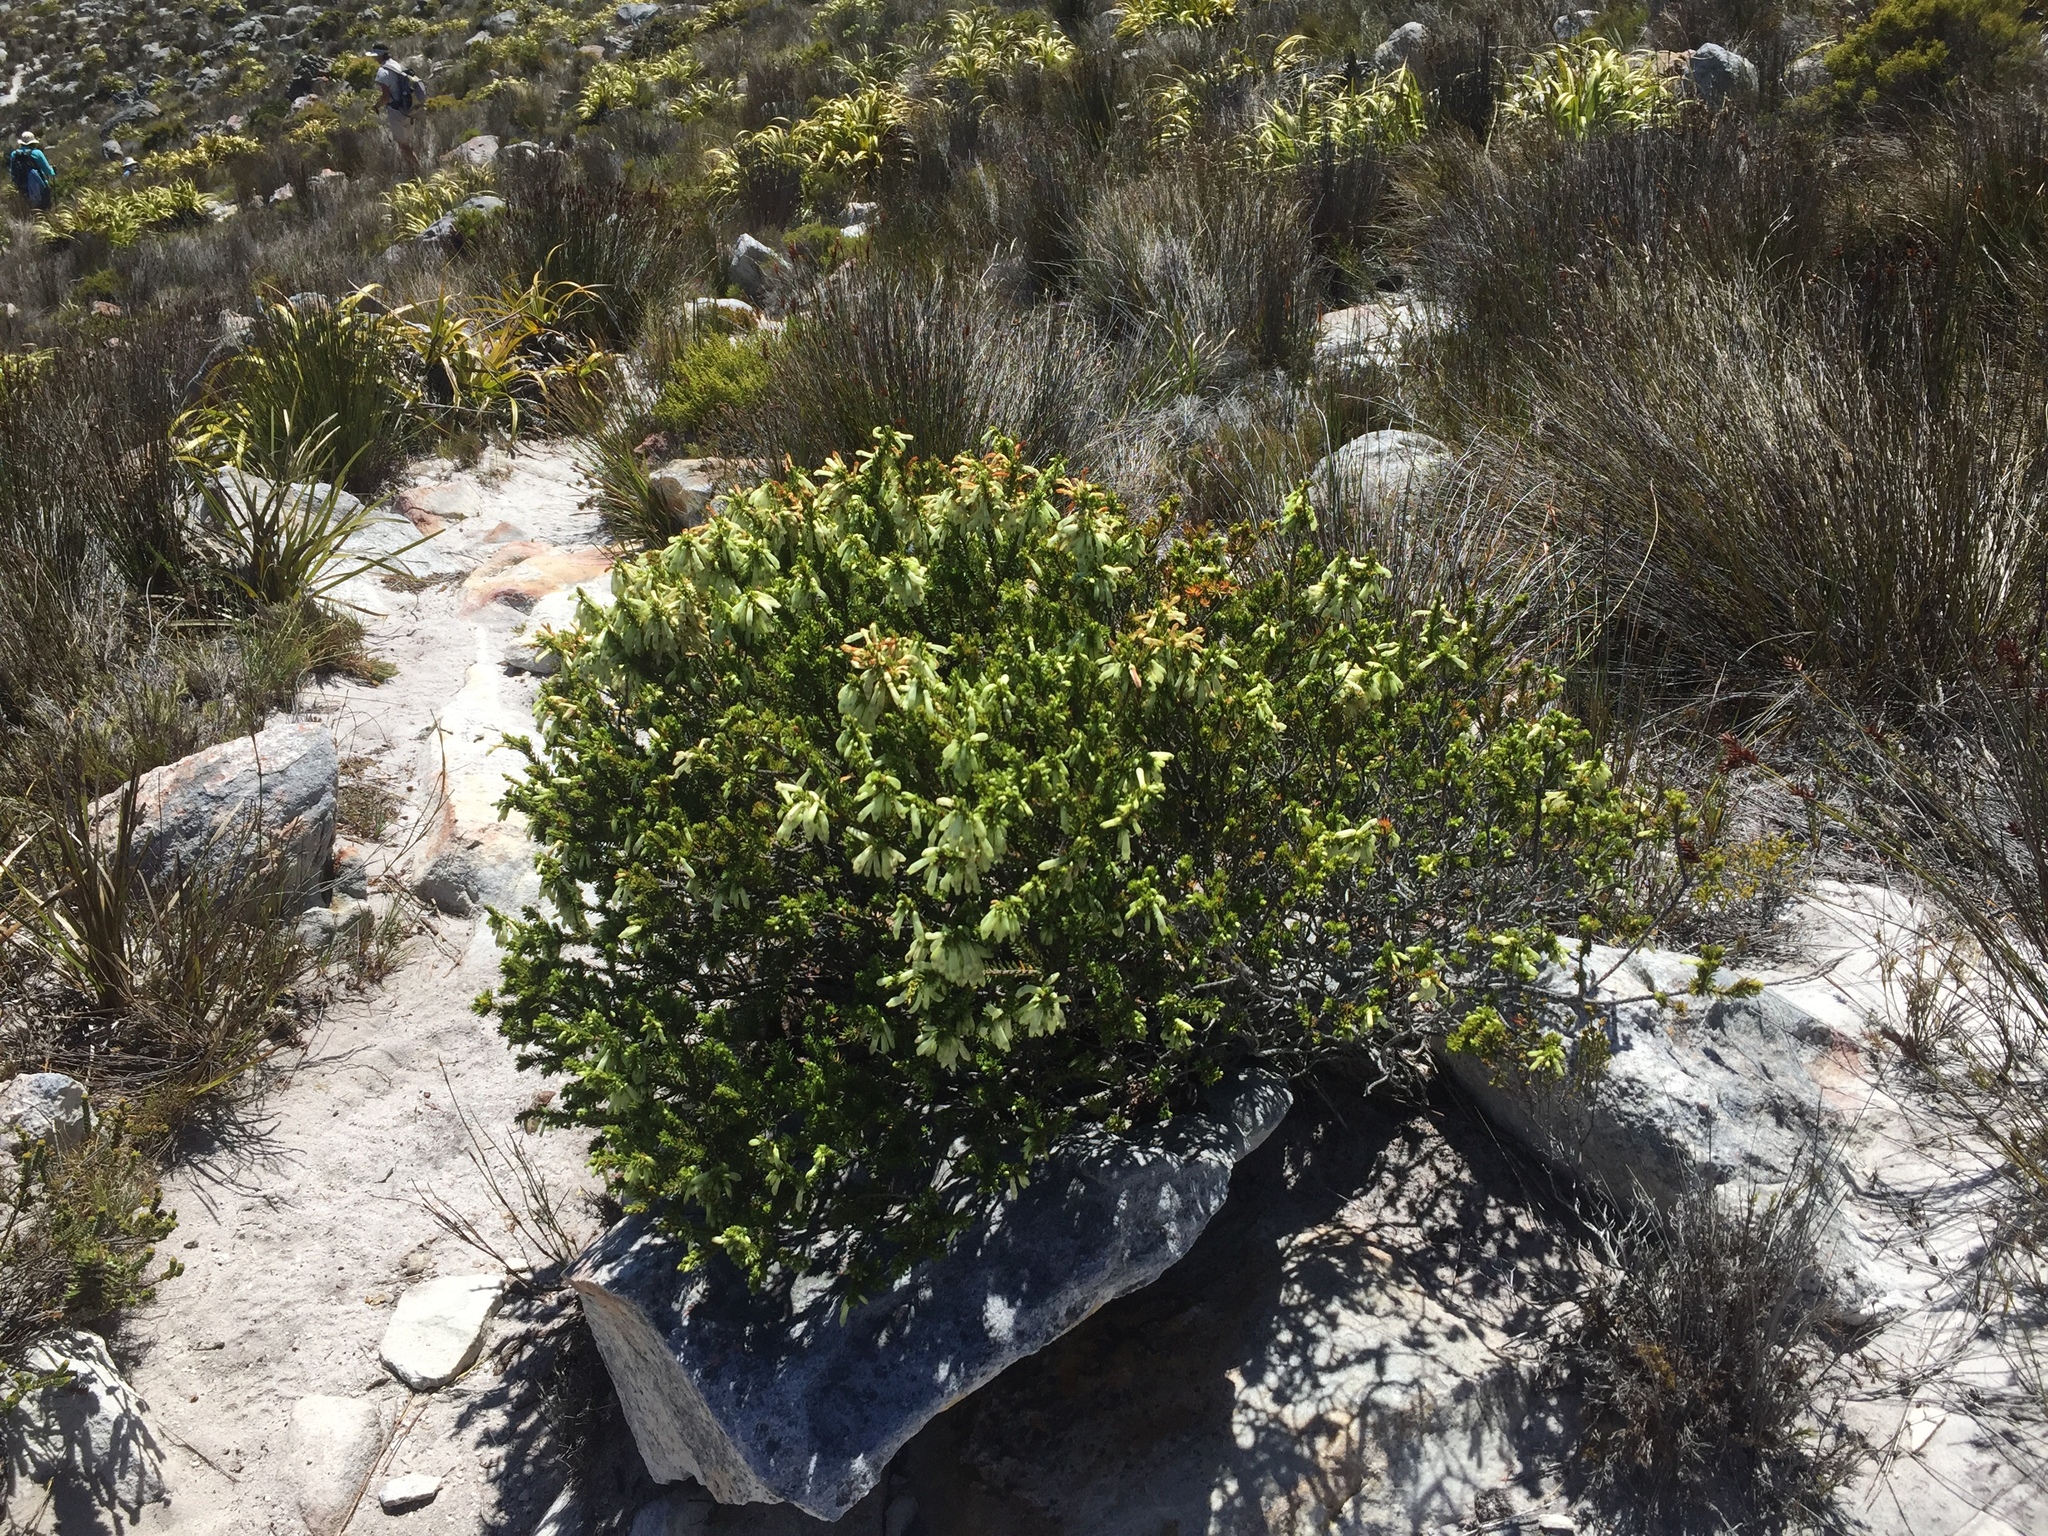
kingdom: Plantae
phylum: Tracheophyta
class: Magnoliopsida
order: Ericales
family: Ericaceae
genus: Erica
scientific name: Erica mammosa
